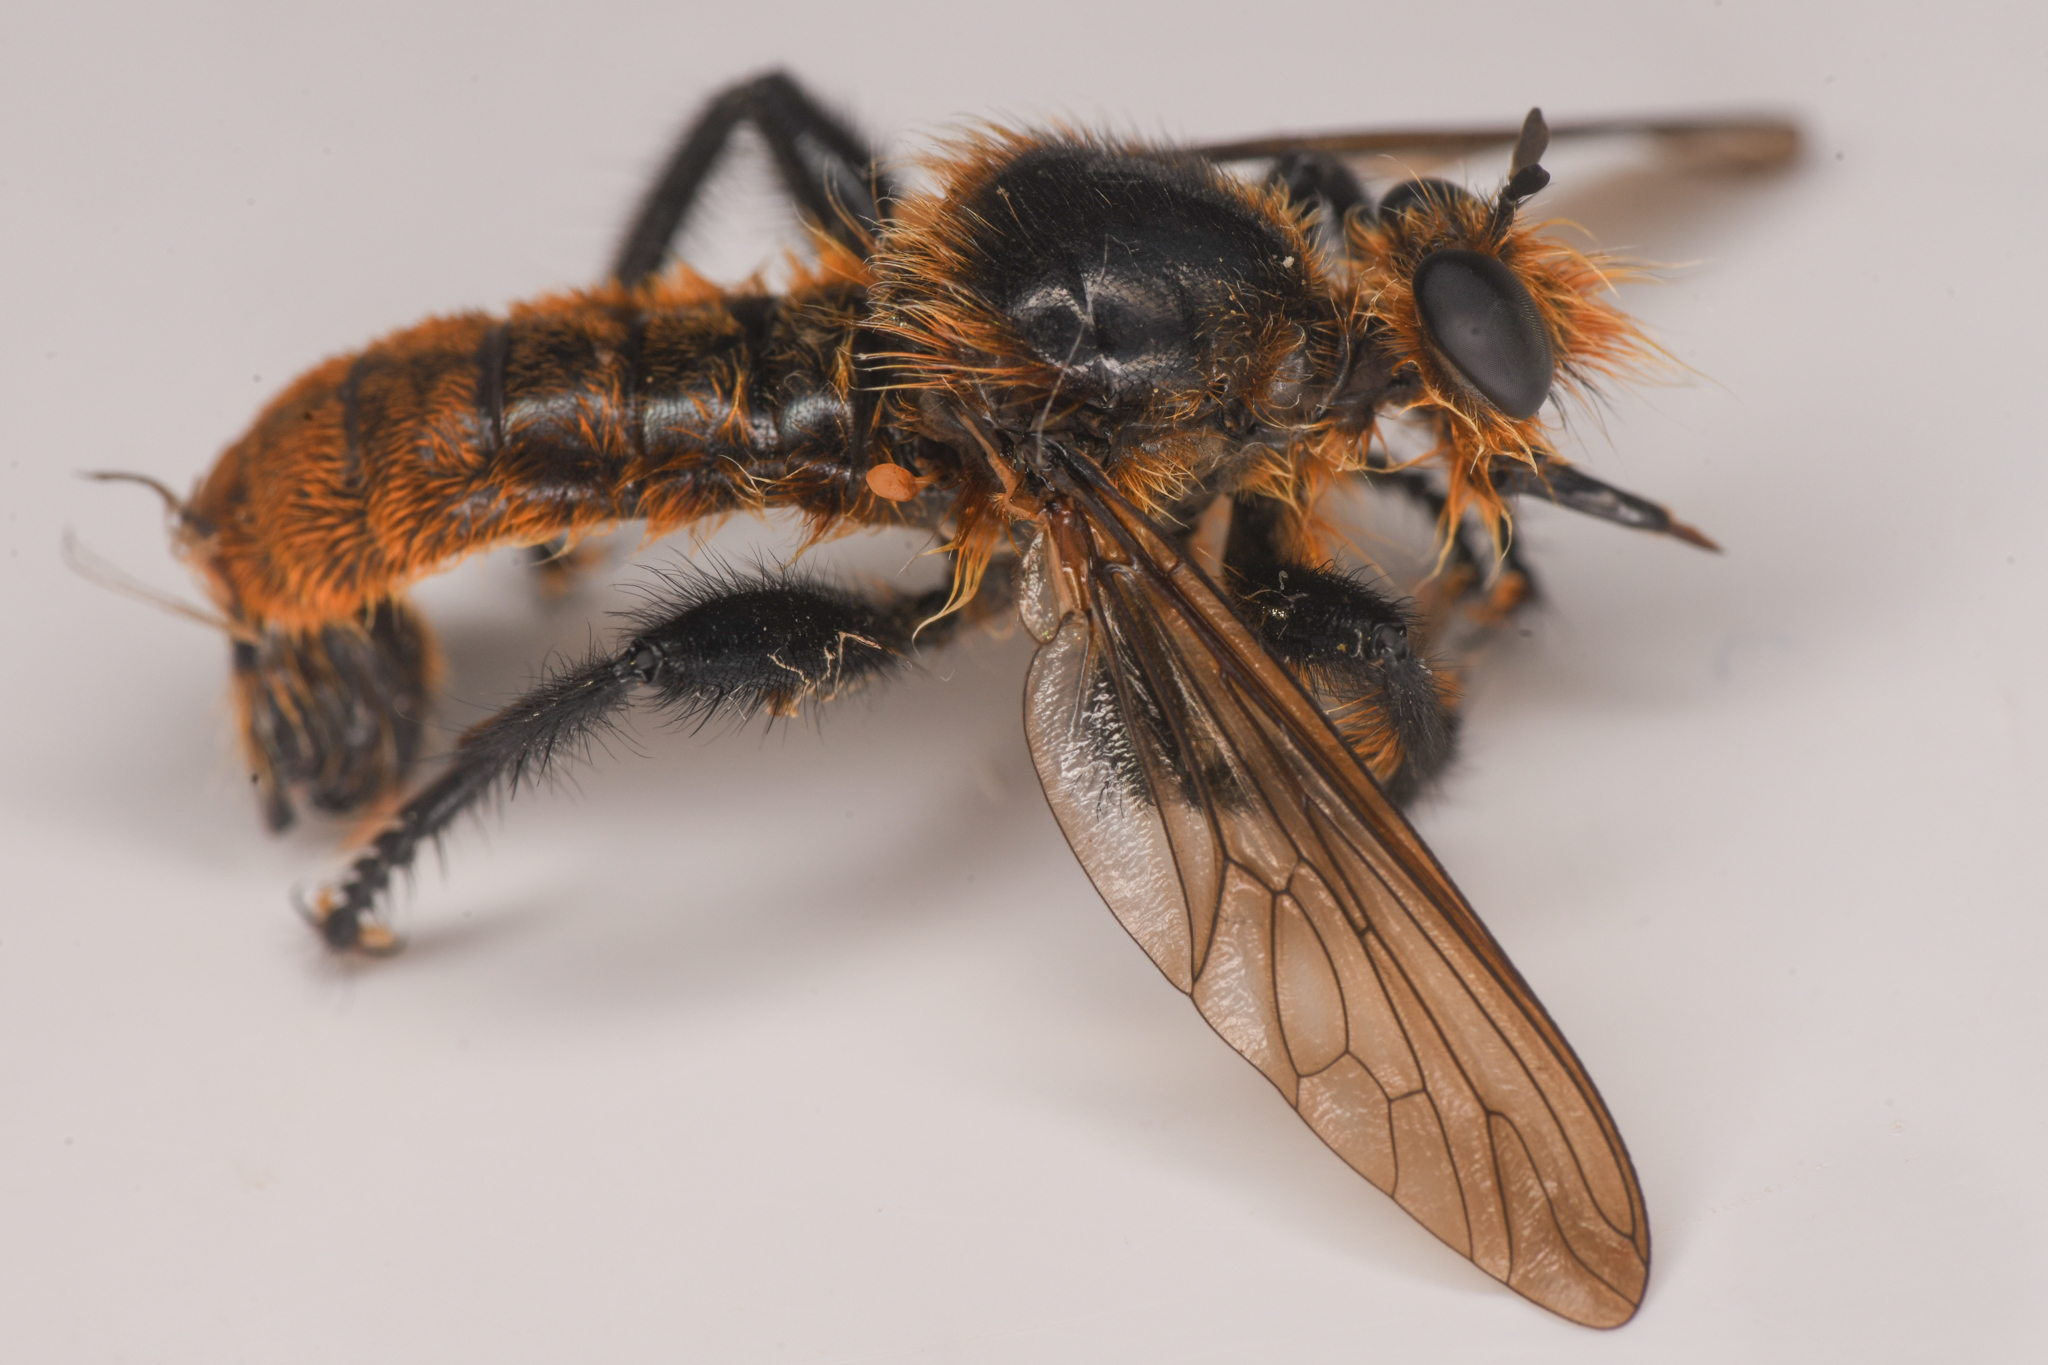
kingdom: Animalia
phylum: Arthropoda
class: Insecta
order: Diptera
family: Asilidae
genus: Laphria
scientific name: Laphria asackeni
